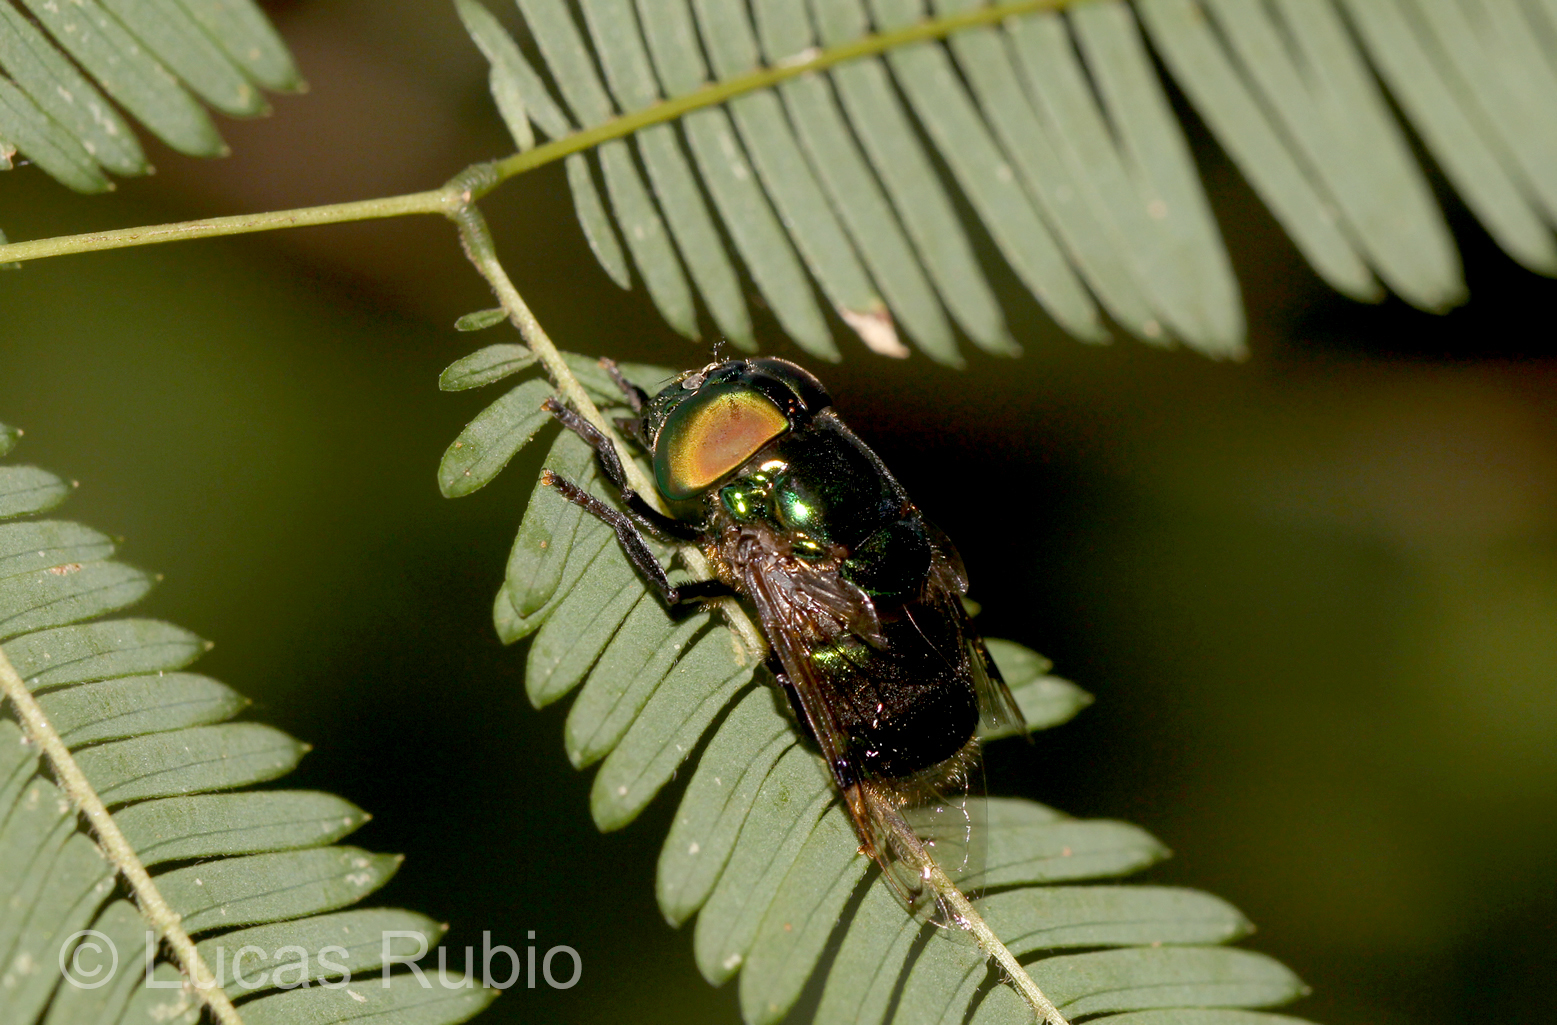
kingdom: Animalia
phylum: Arthropoda
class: Insecta
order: Diptera
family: Syrphidae
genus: Ornidia
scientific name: Ornidia obesa
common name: Syrphid fly
